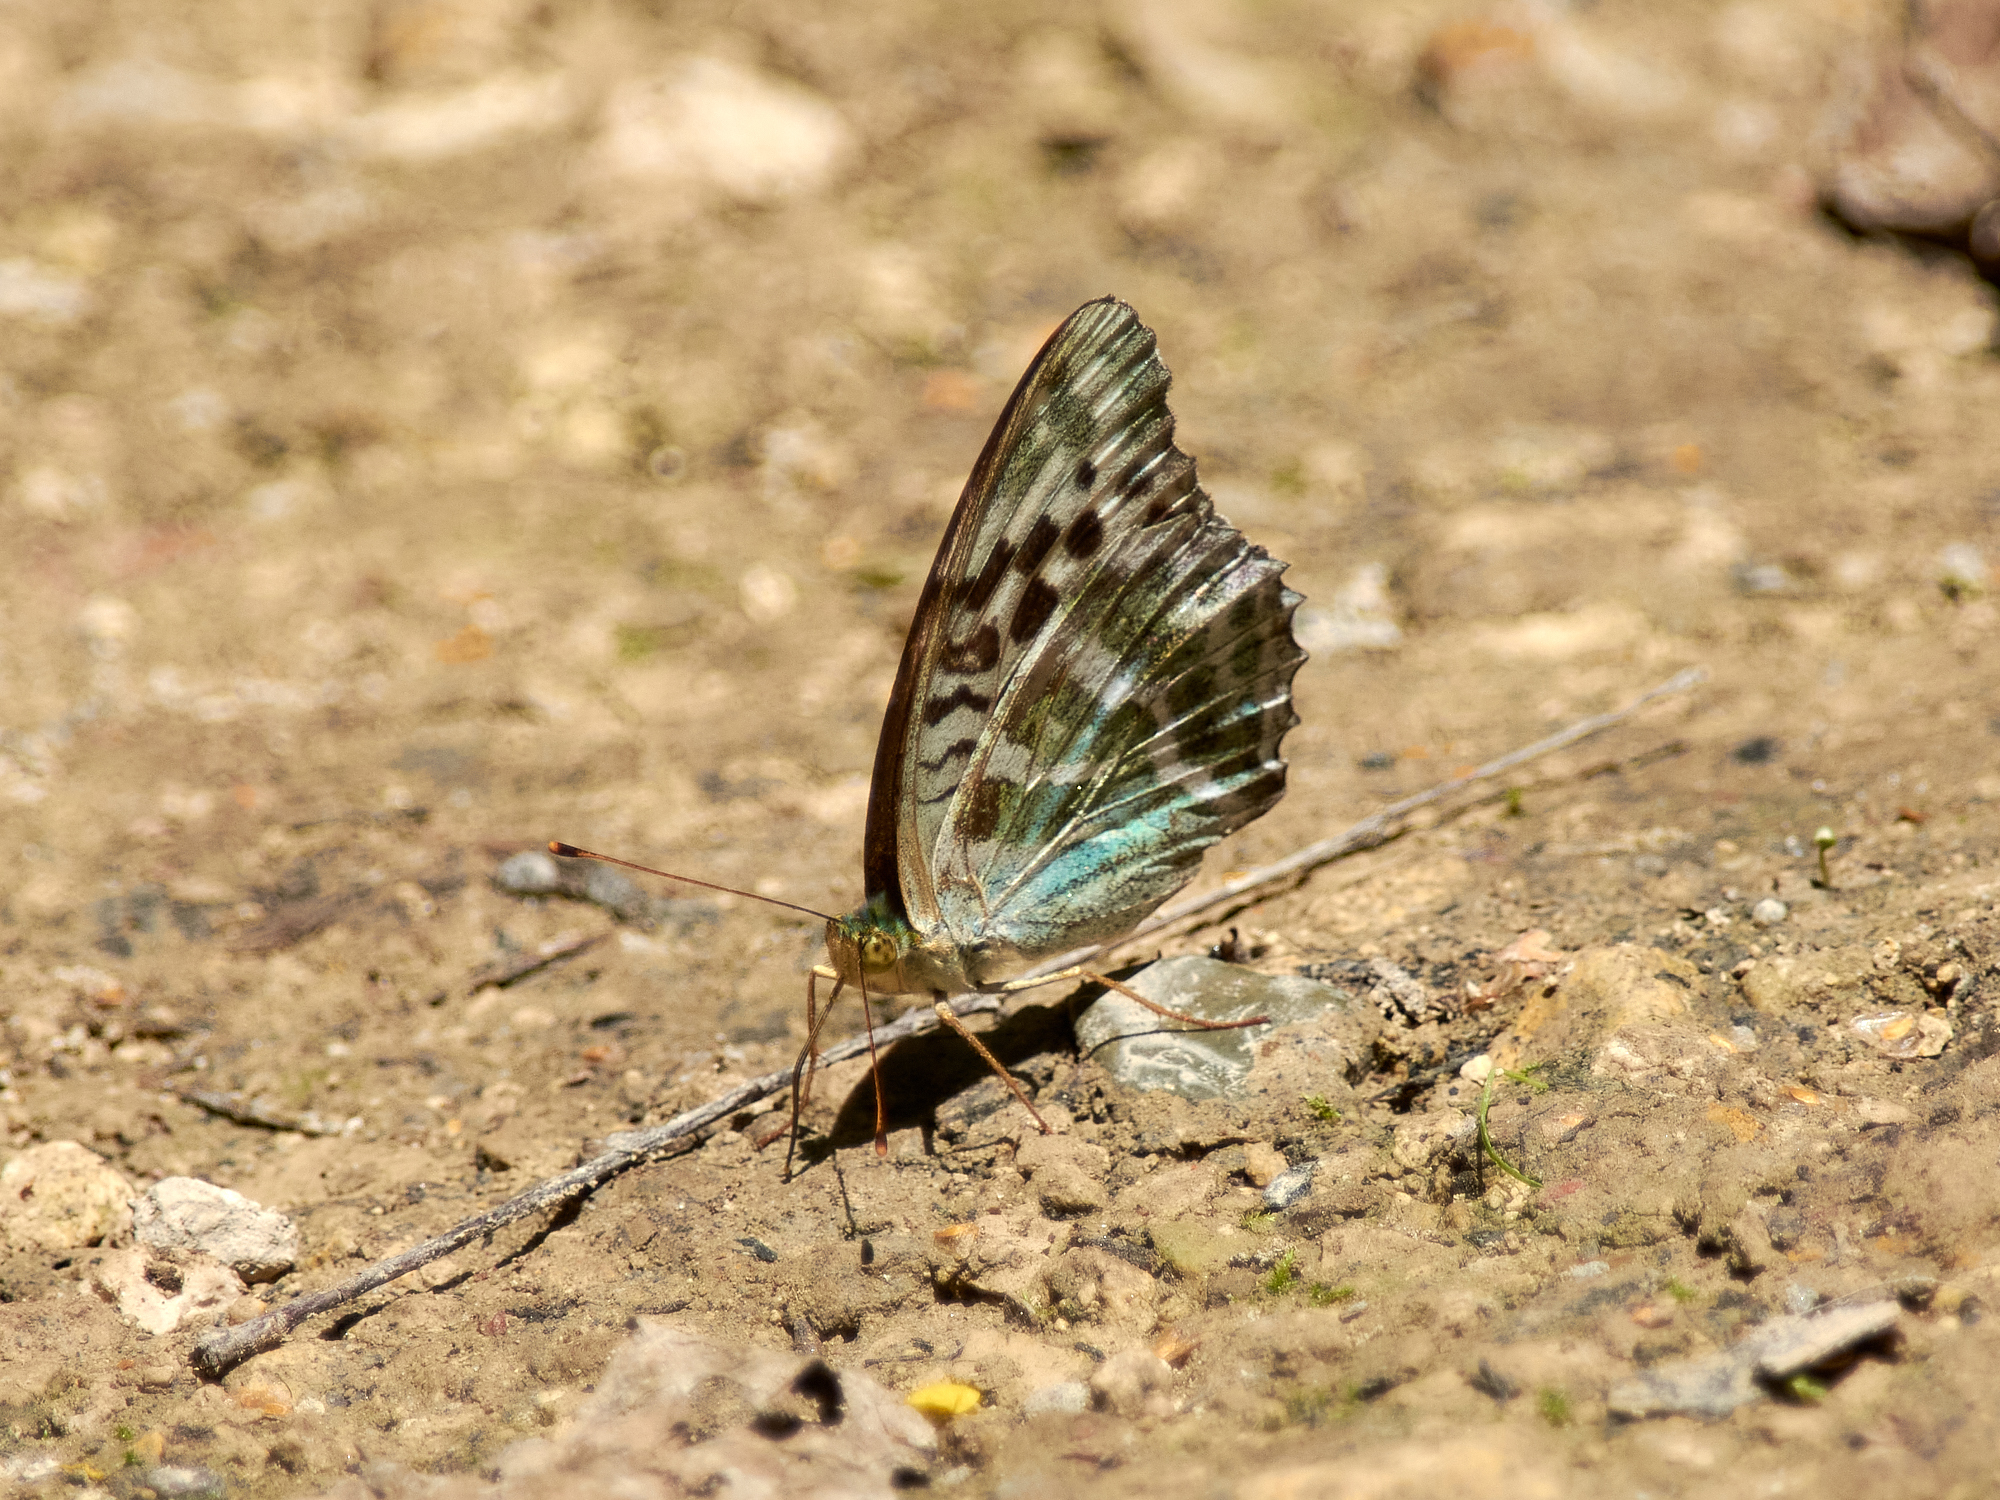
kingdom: Animalia
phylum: Arthropoda
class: Insecta
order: Lepidoptera
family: Nymphalidae
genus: Argynnis
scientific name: Argynnis paphia
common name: Silver-washed fritillary
